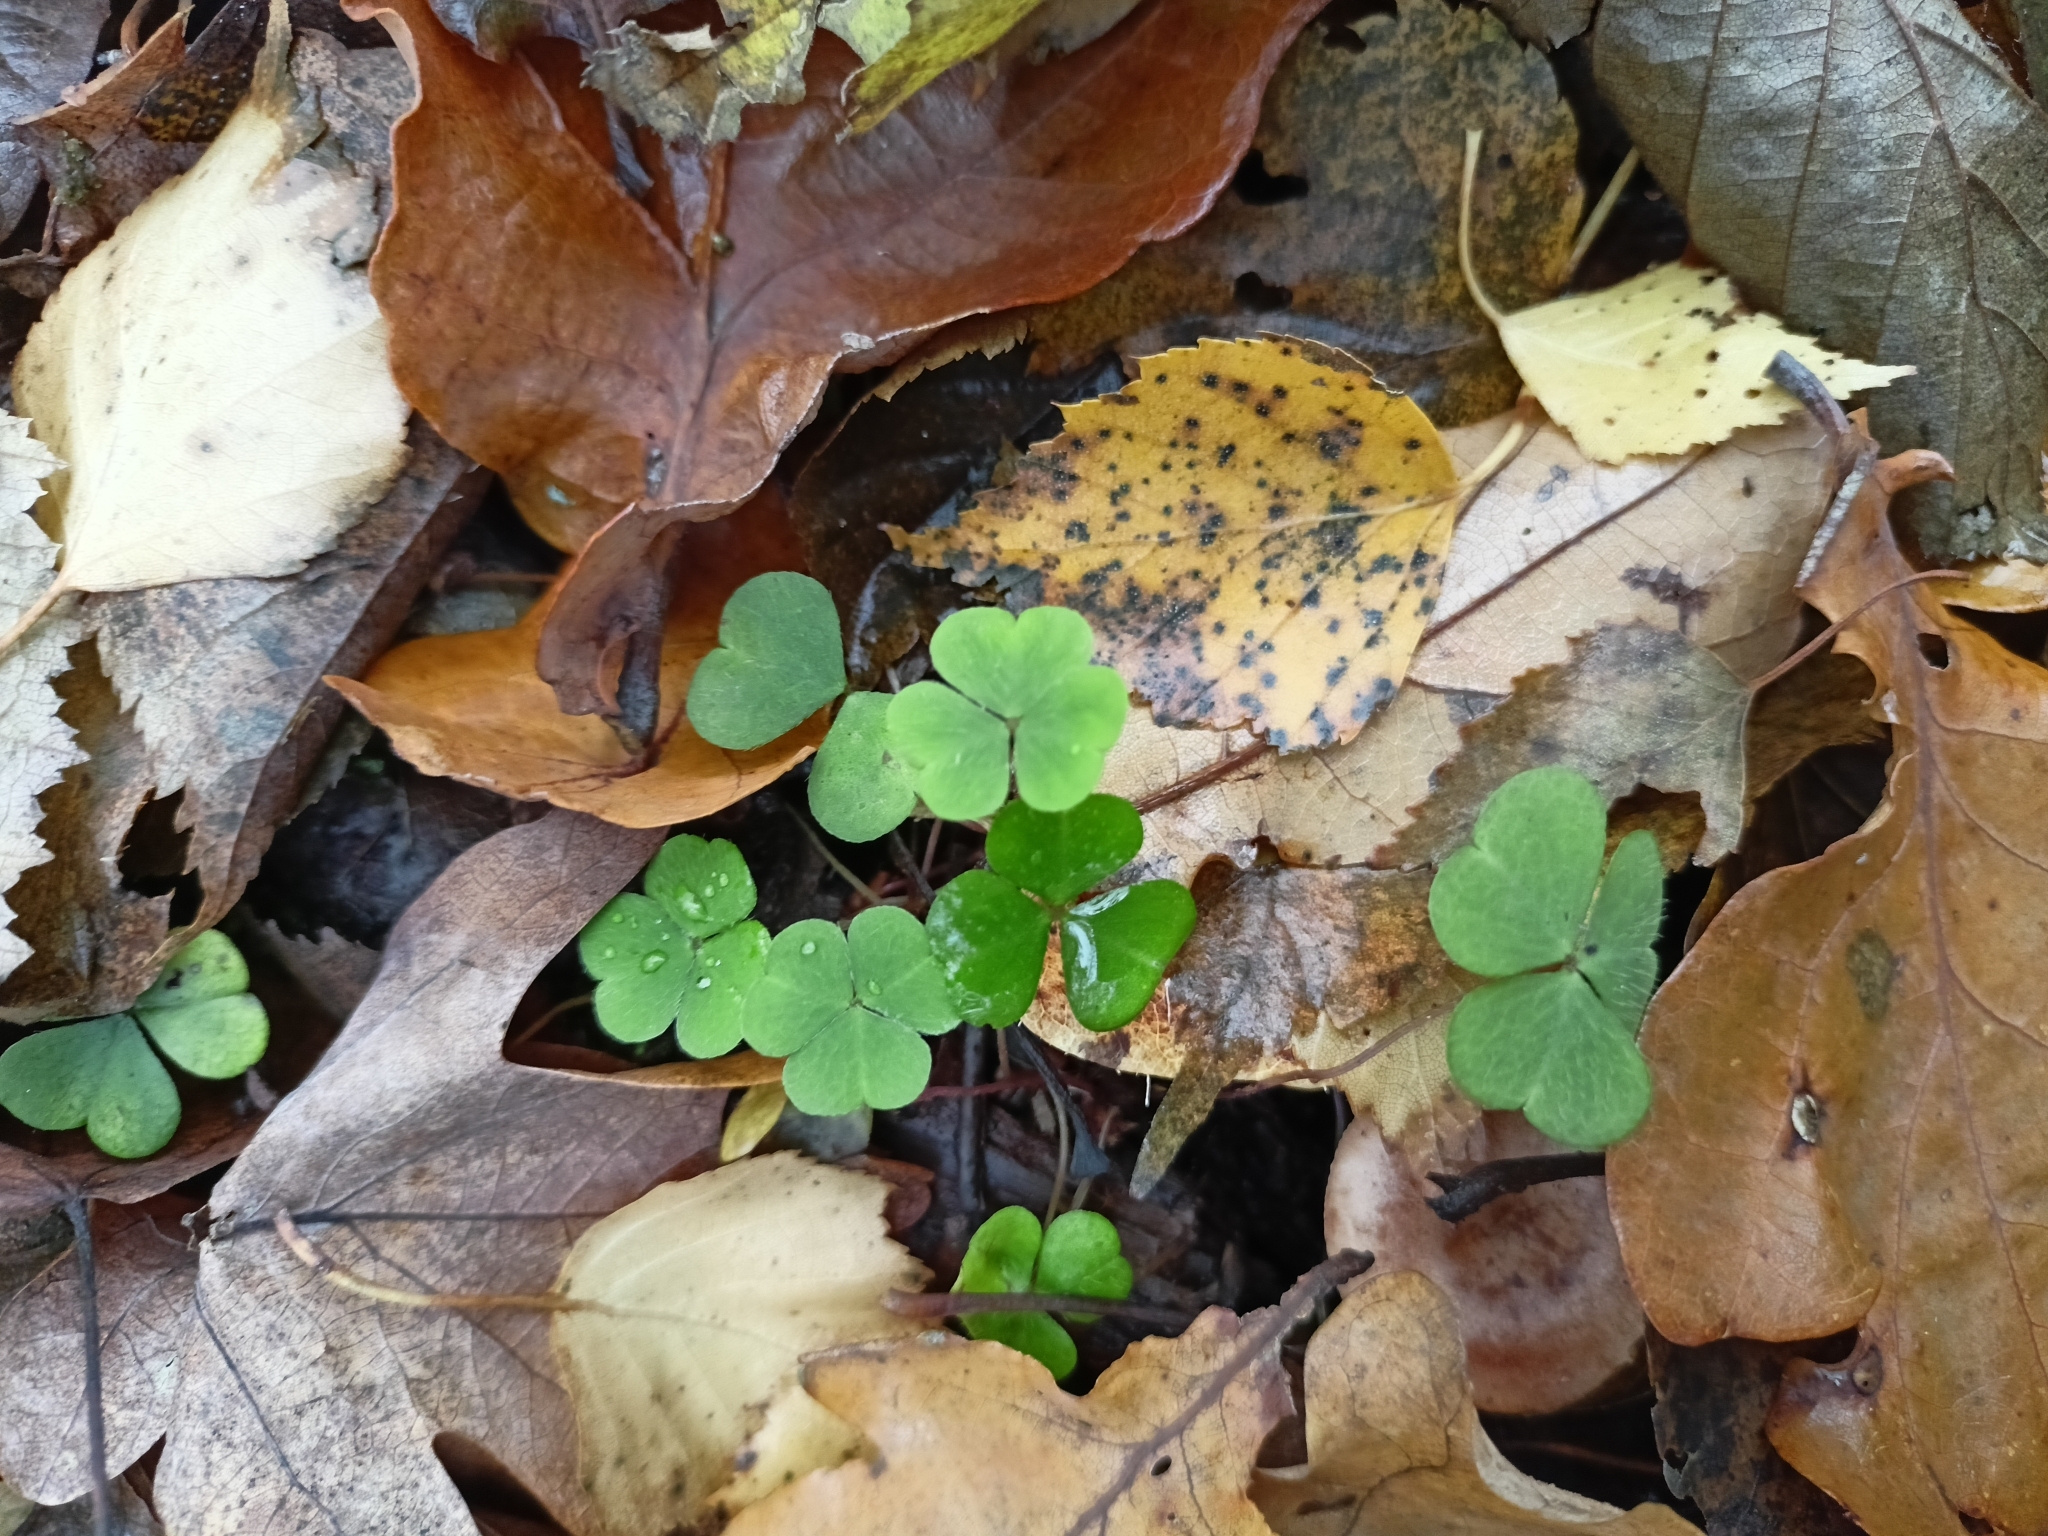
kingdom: Plantae
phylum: Tracheophyta
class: Magnoliopsida
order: Oxalidales
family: Oxalidaceae
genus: Oxalis
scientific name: Oxalis acetosella
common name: Wood-sorrel
